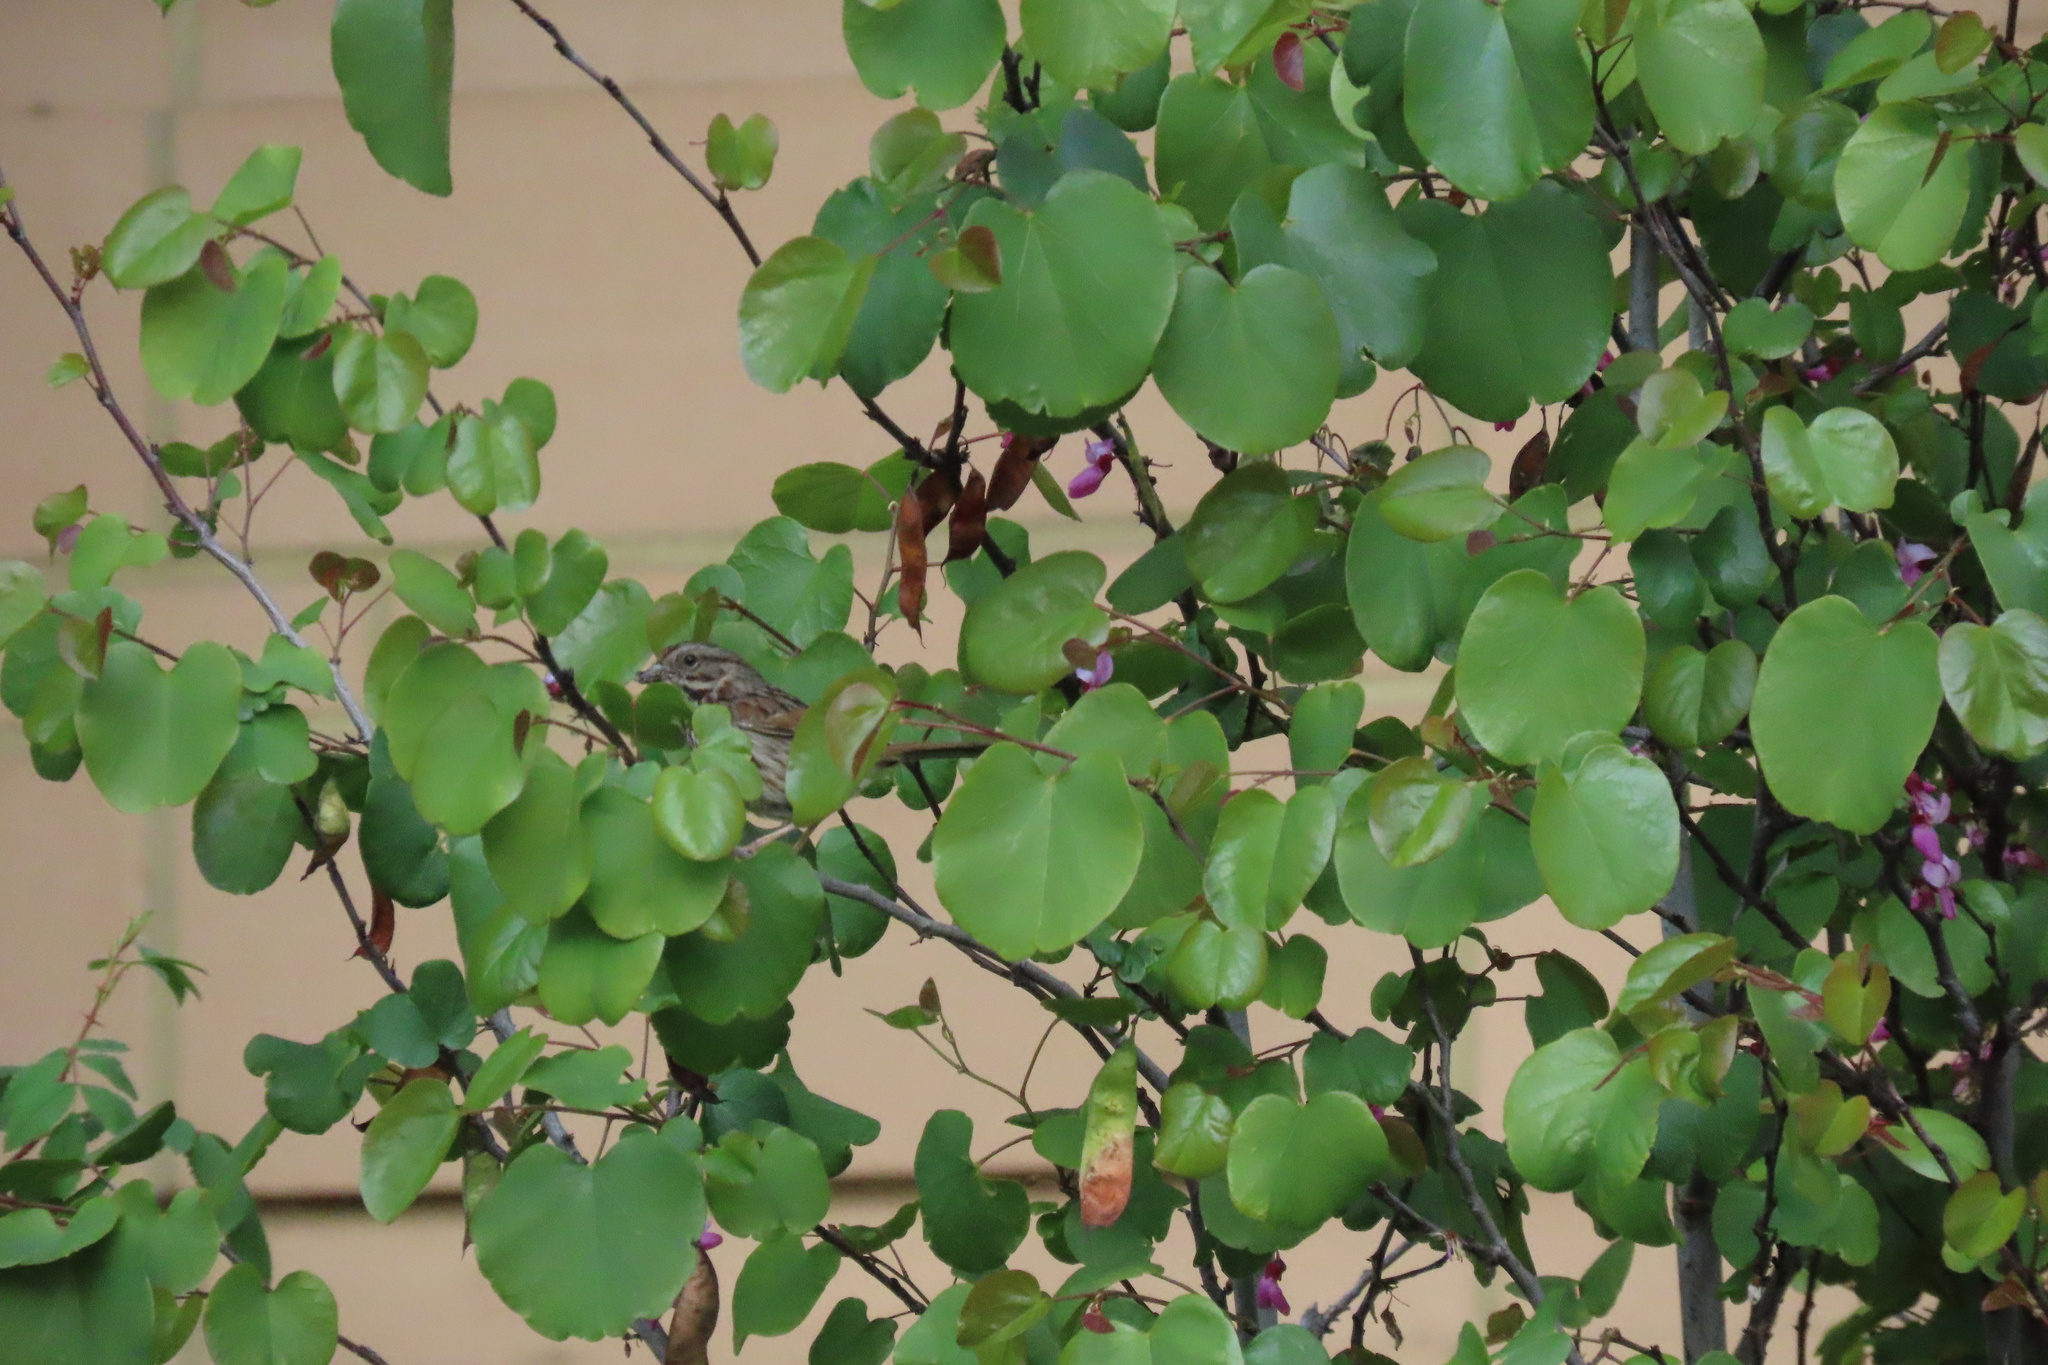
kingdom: Animalia
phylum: Chordata
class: Aves
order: Passeriformes
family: Passerellidae
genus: Melospiza
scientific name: Melospiza melodia
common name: Song sparrow
